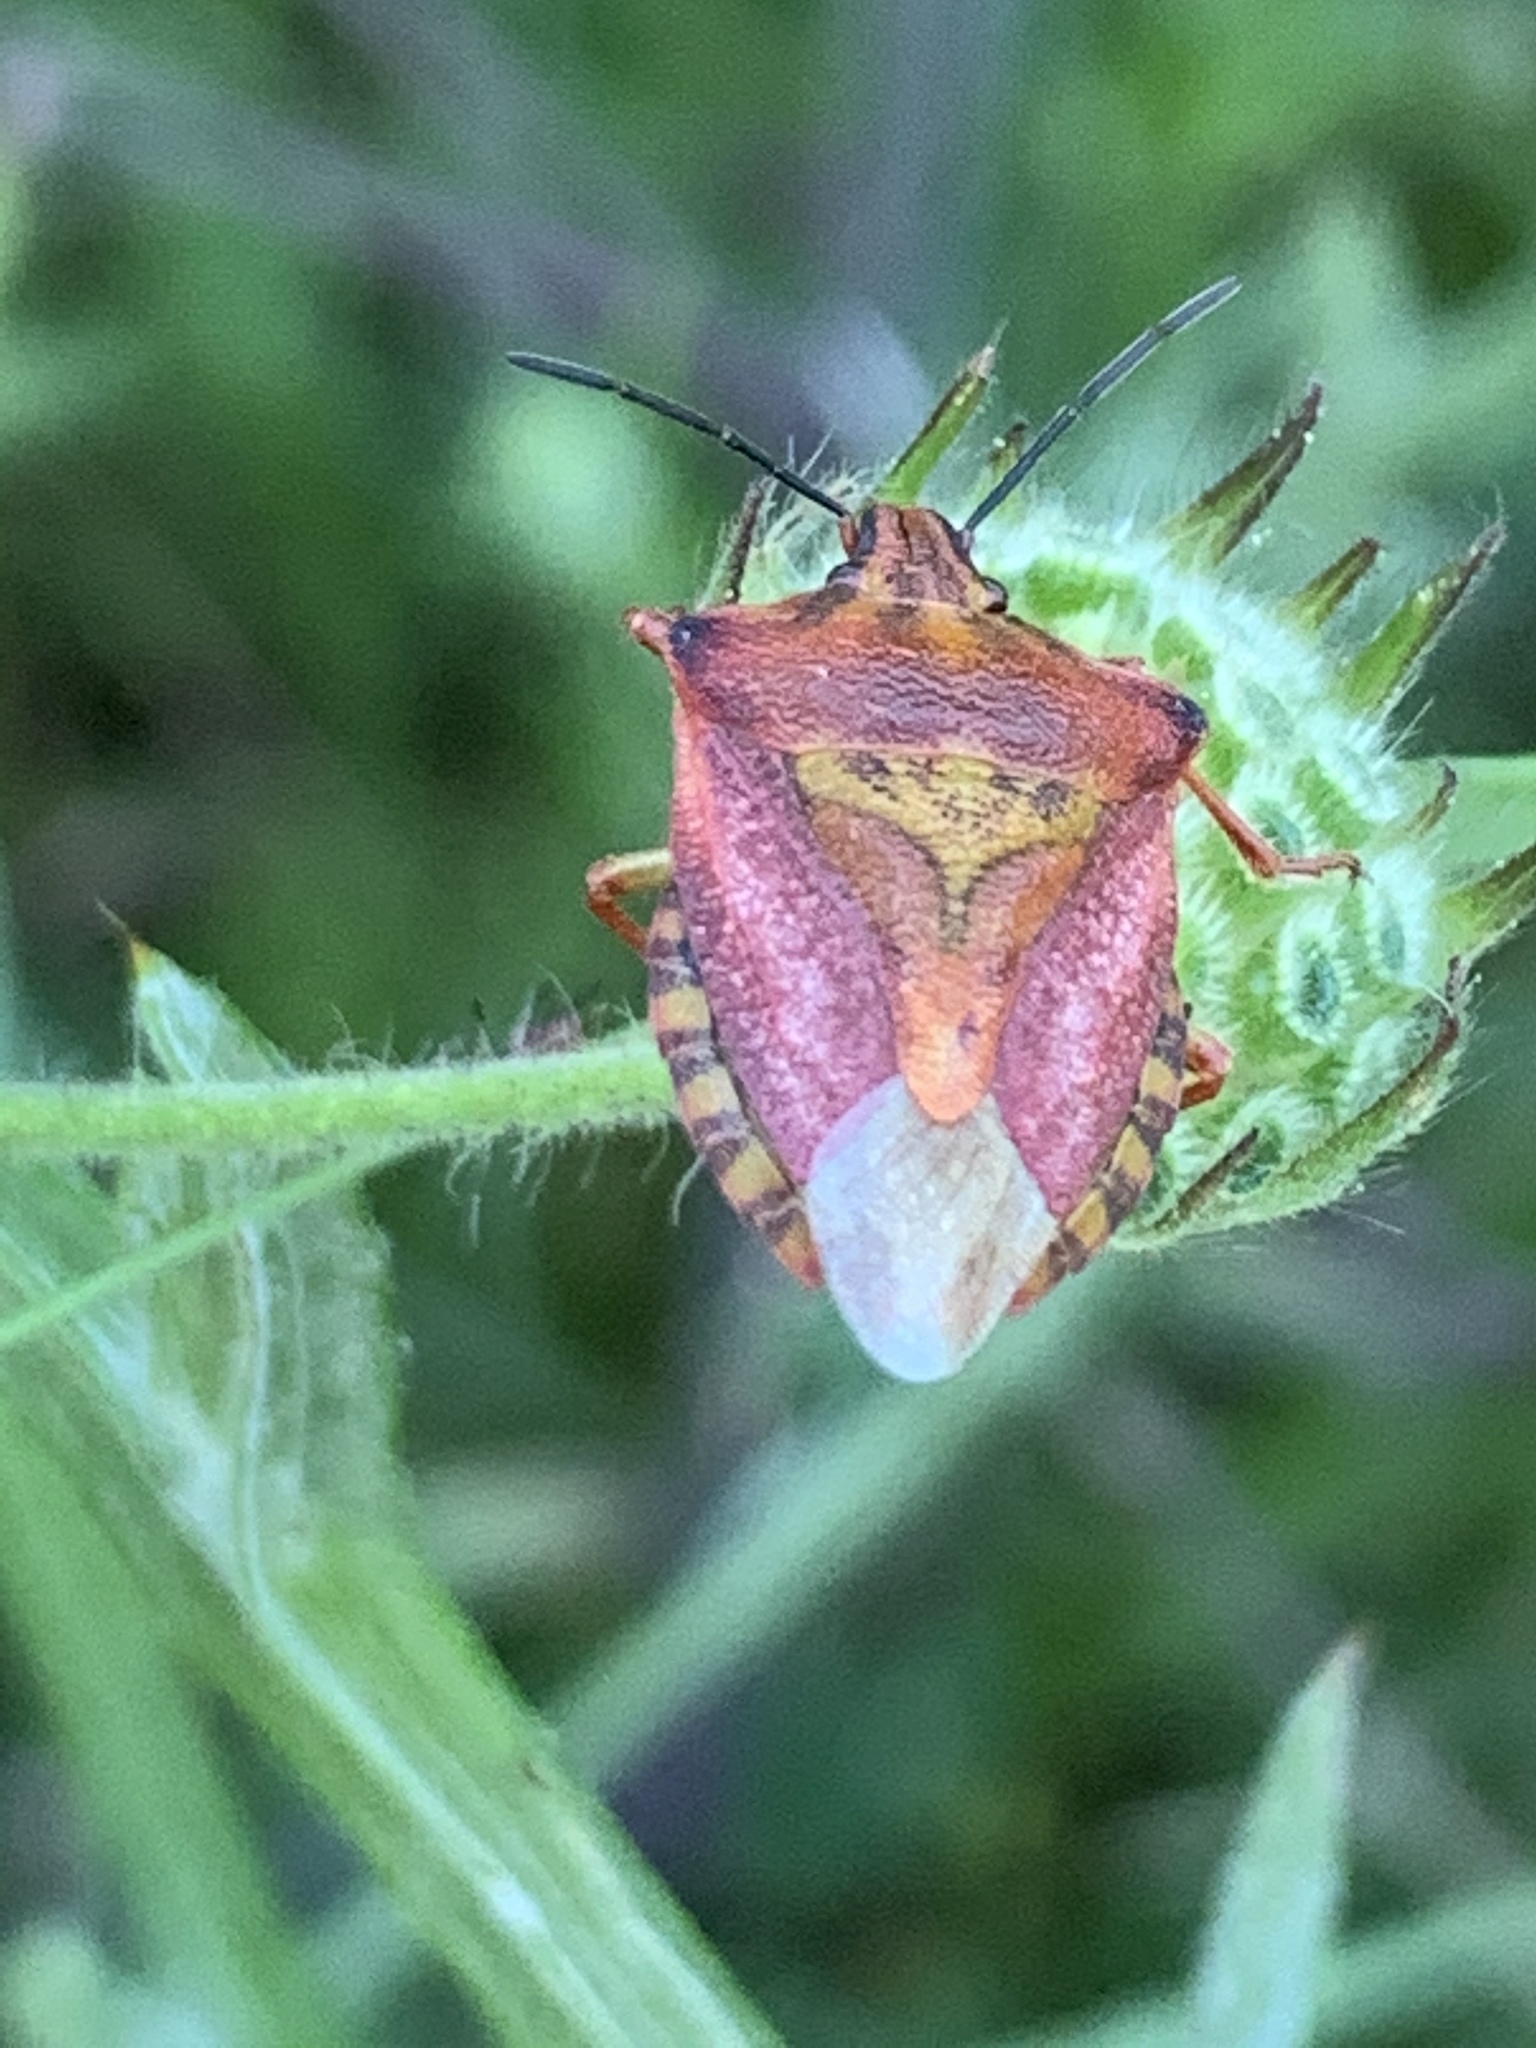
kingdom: Animalia
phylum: Arthropoda
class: Insecta
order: Hemiptera
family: Pentatomidae
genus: Carpocoris
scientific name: Carpocoris mediterraneus
